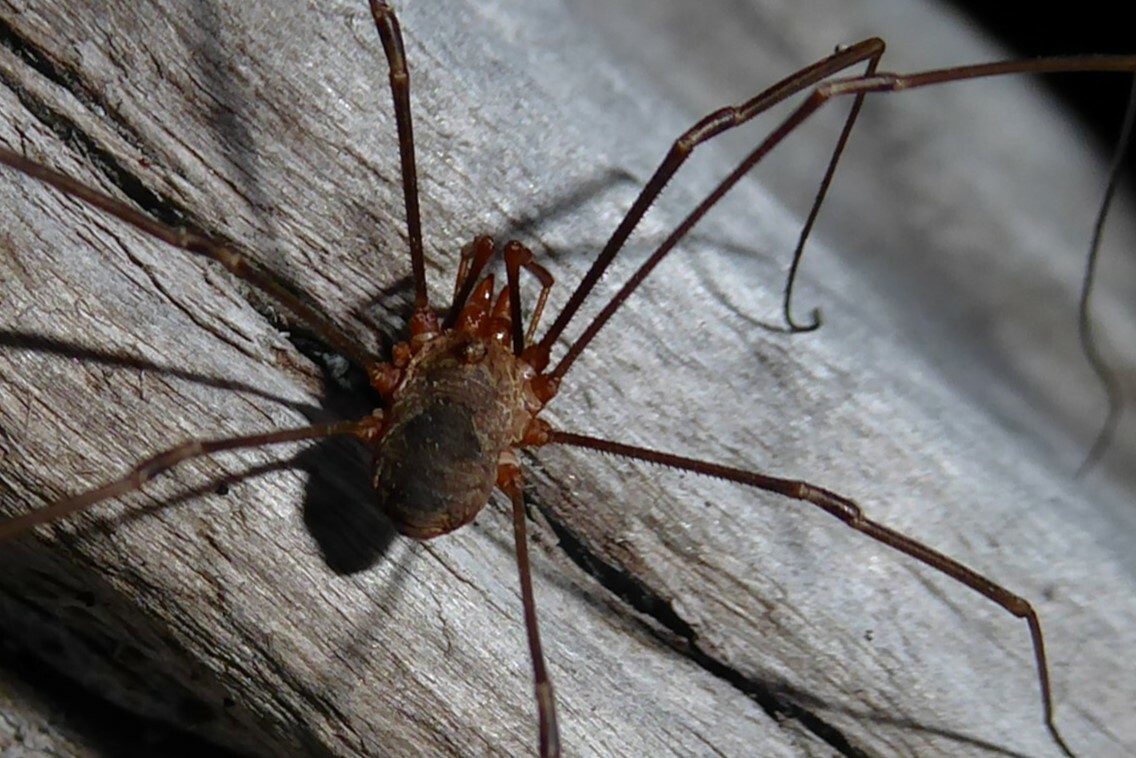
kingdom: Animalia
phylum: Arthropoda
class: Arachnida
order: Opiliones
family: Phalangiidae
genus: Phalangium
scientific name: Phalangium opilio
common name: Daddy longleg
